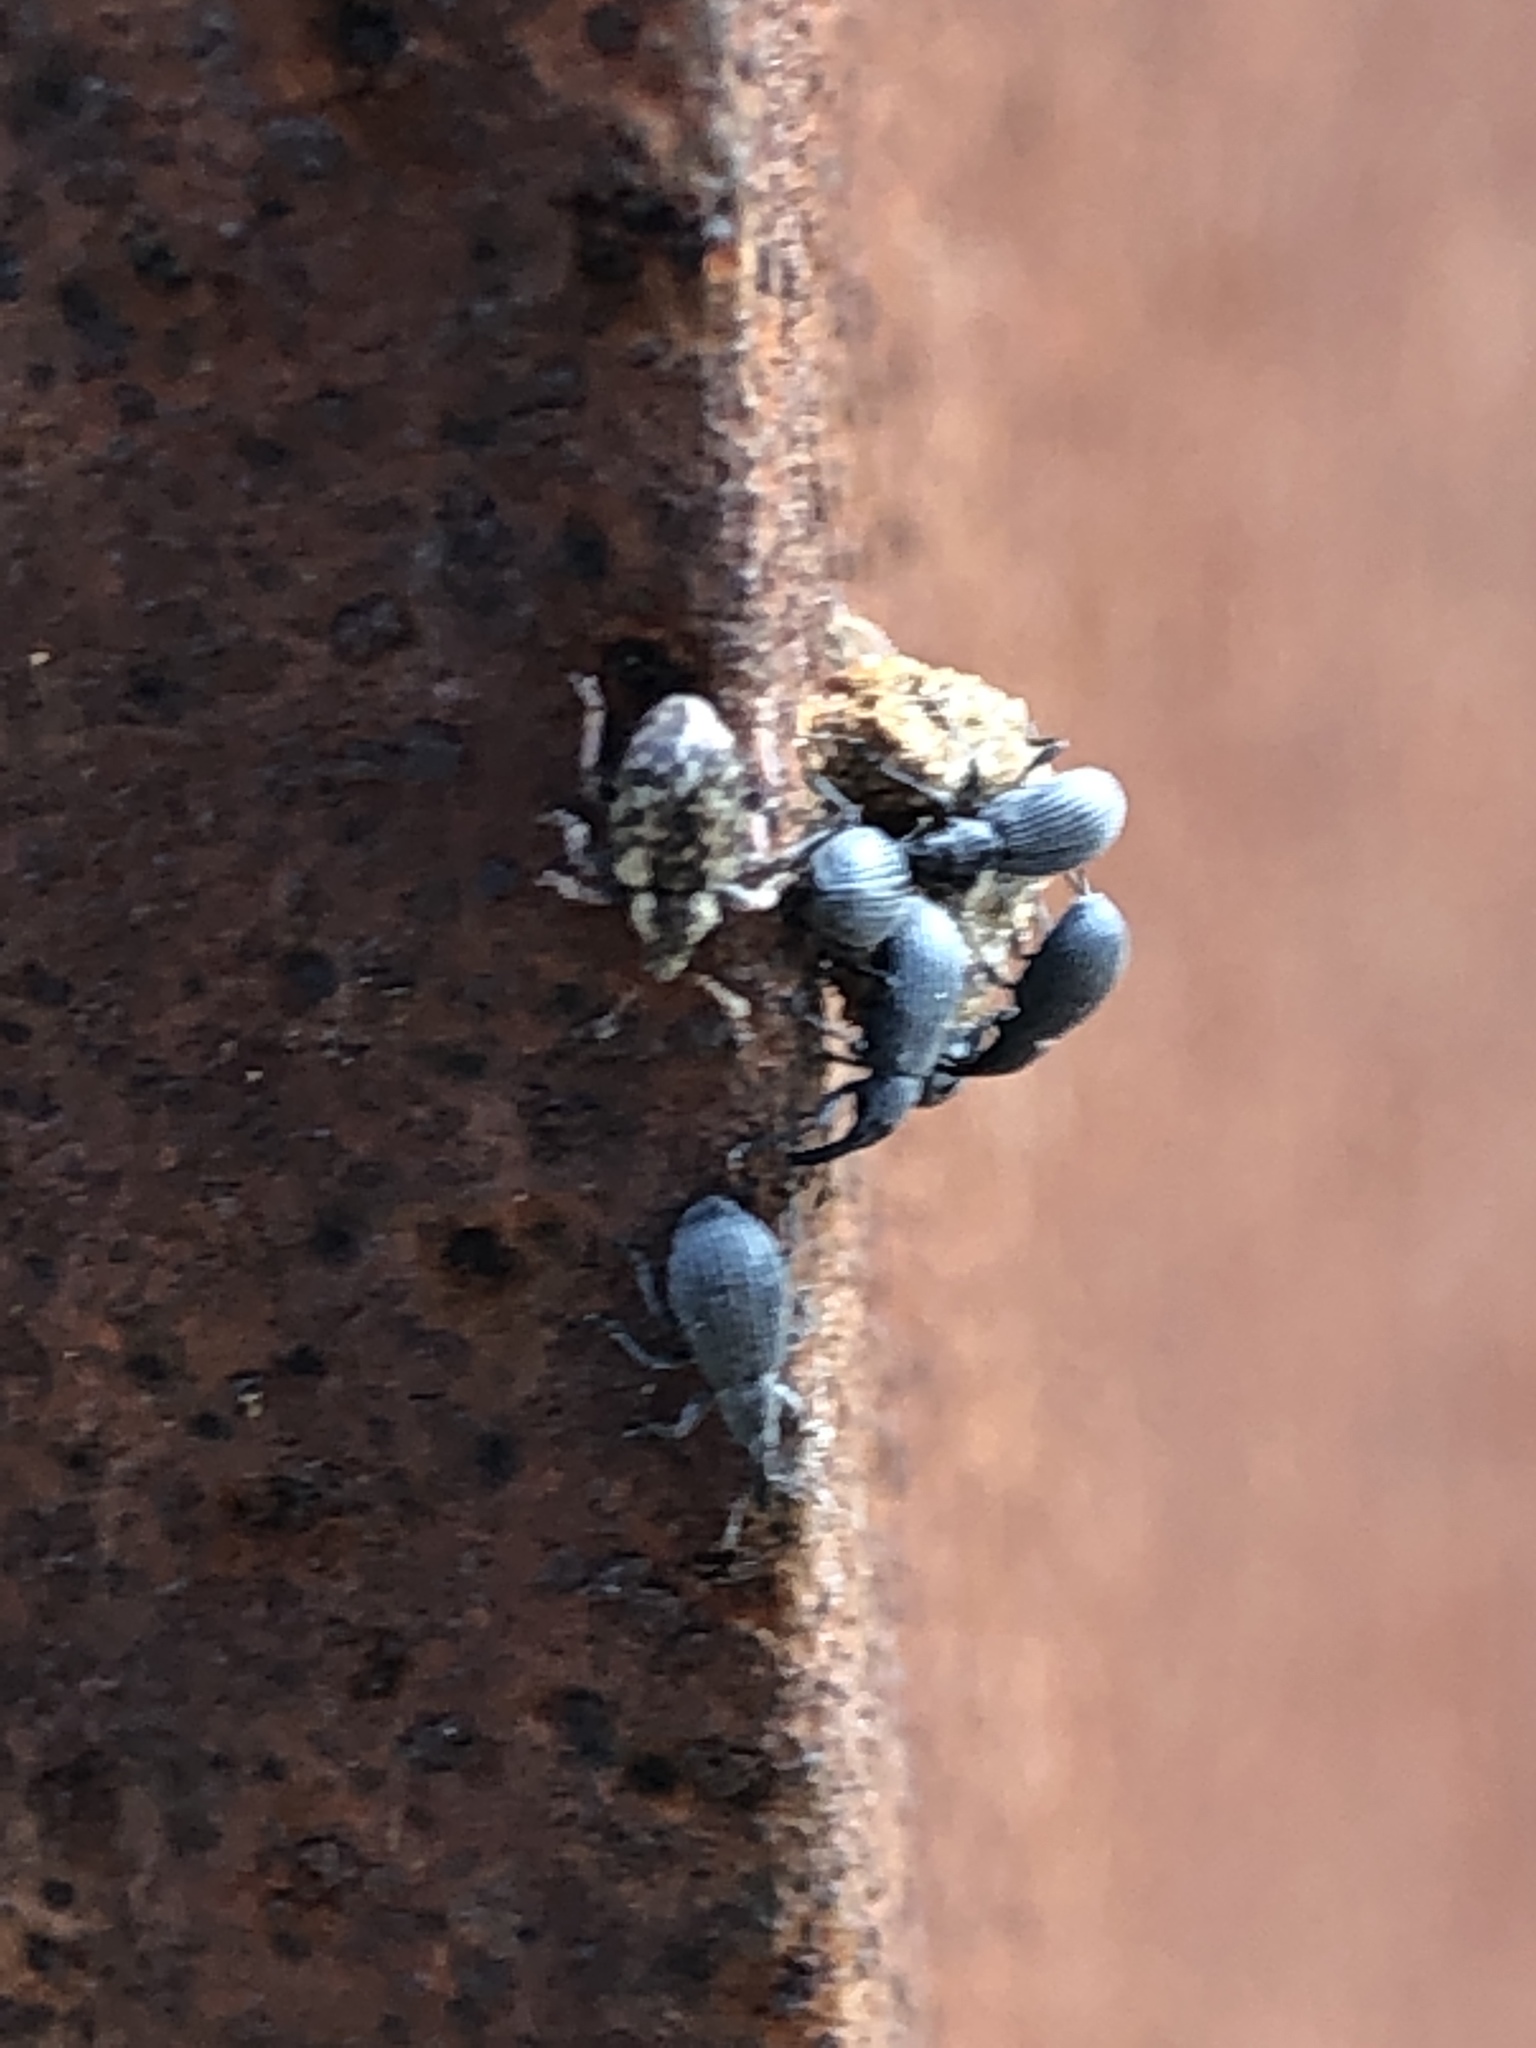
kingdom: Animalia
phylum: Arthropoda
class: Insecta
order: Coleoptera
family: Curculionidae
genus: Limobius
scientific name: Limobius borealis
